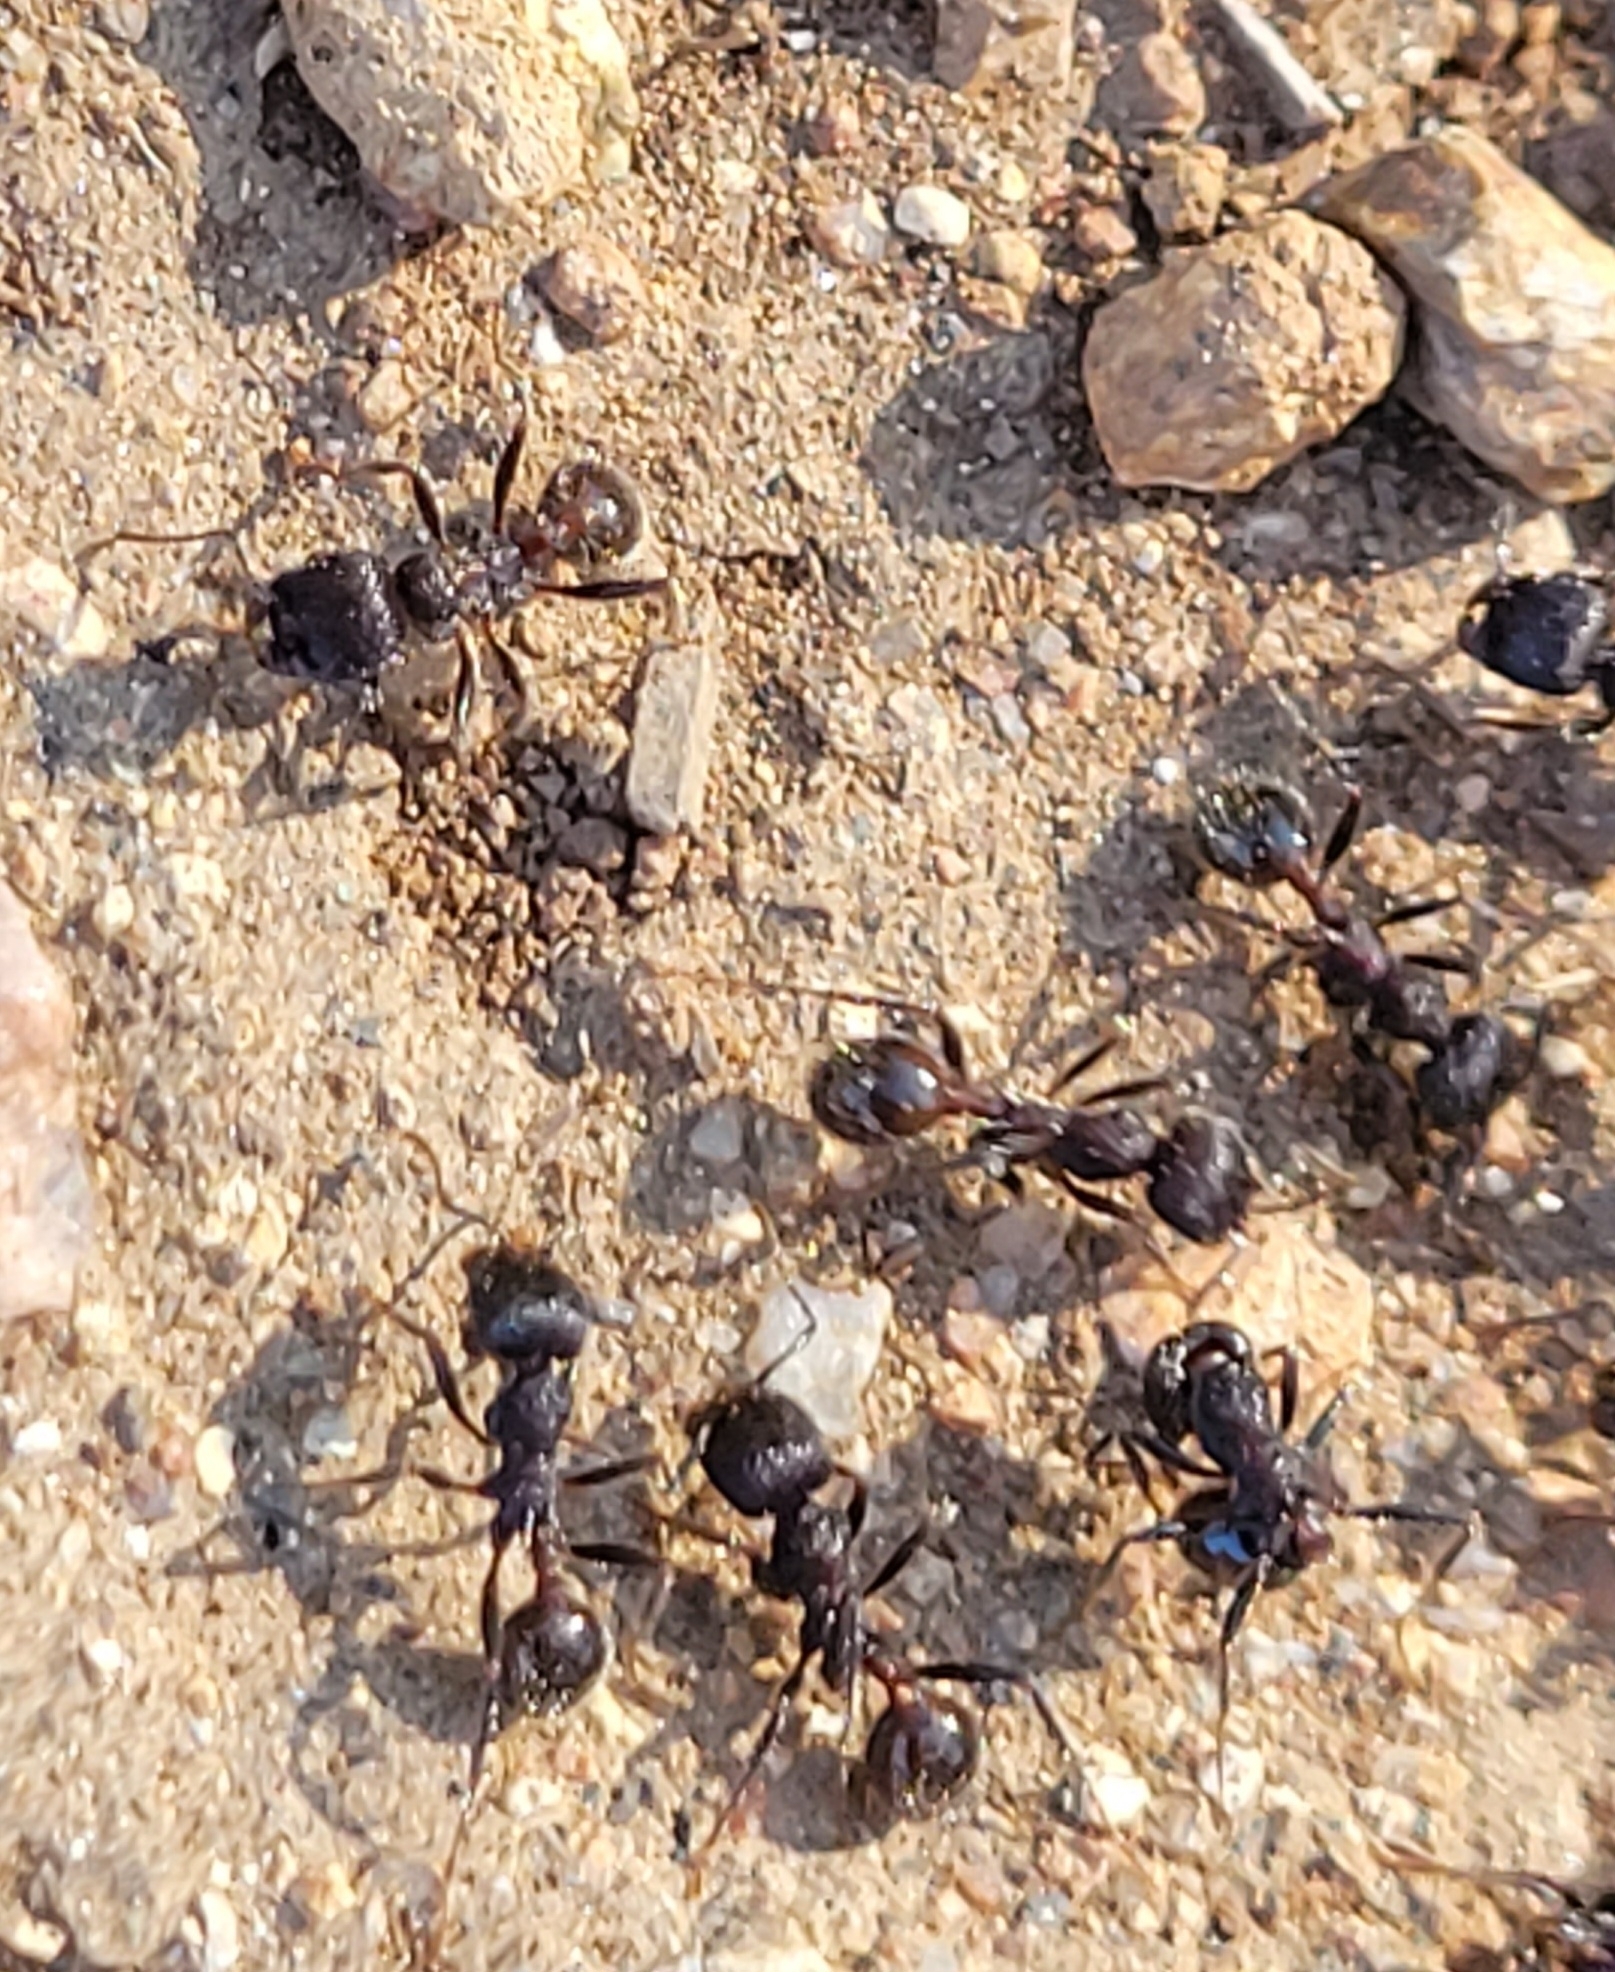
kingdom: Animalia
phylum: Arthropoda
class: Insecta
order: Hymenoptera
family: Formicidae
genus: Veromessor
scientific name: Veromessor andrei
